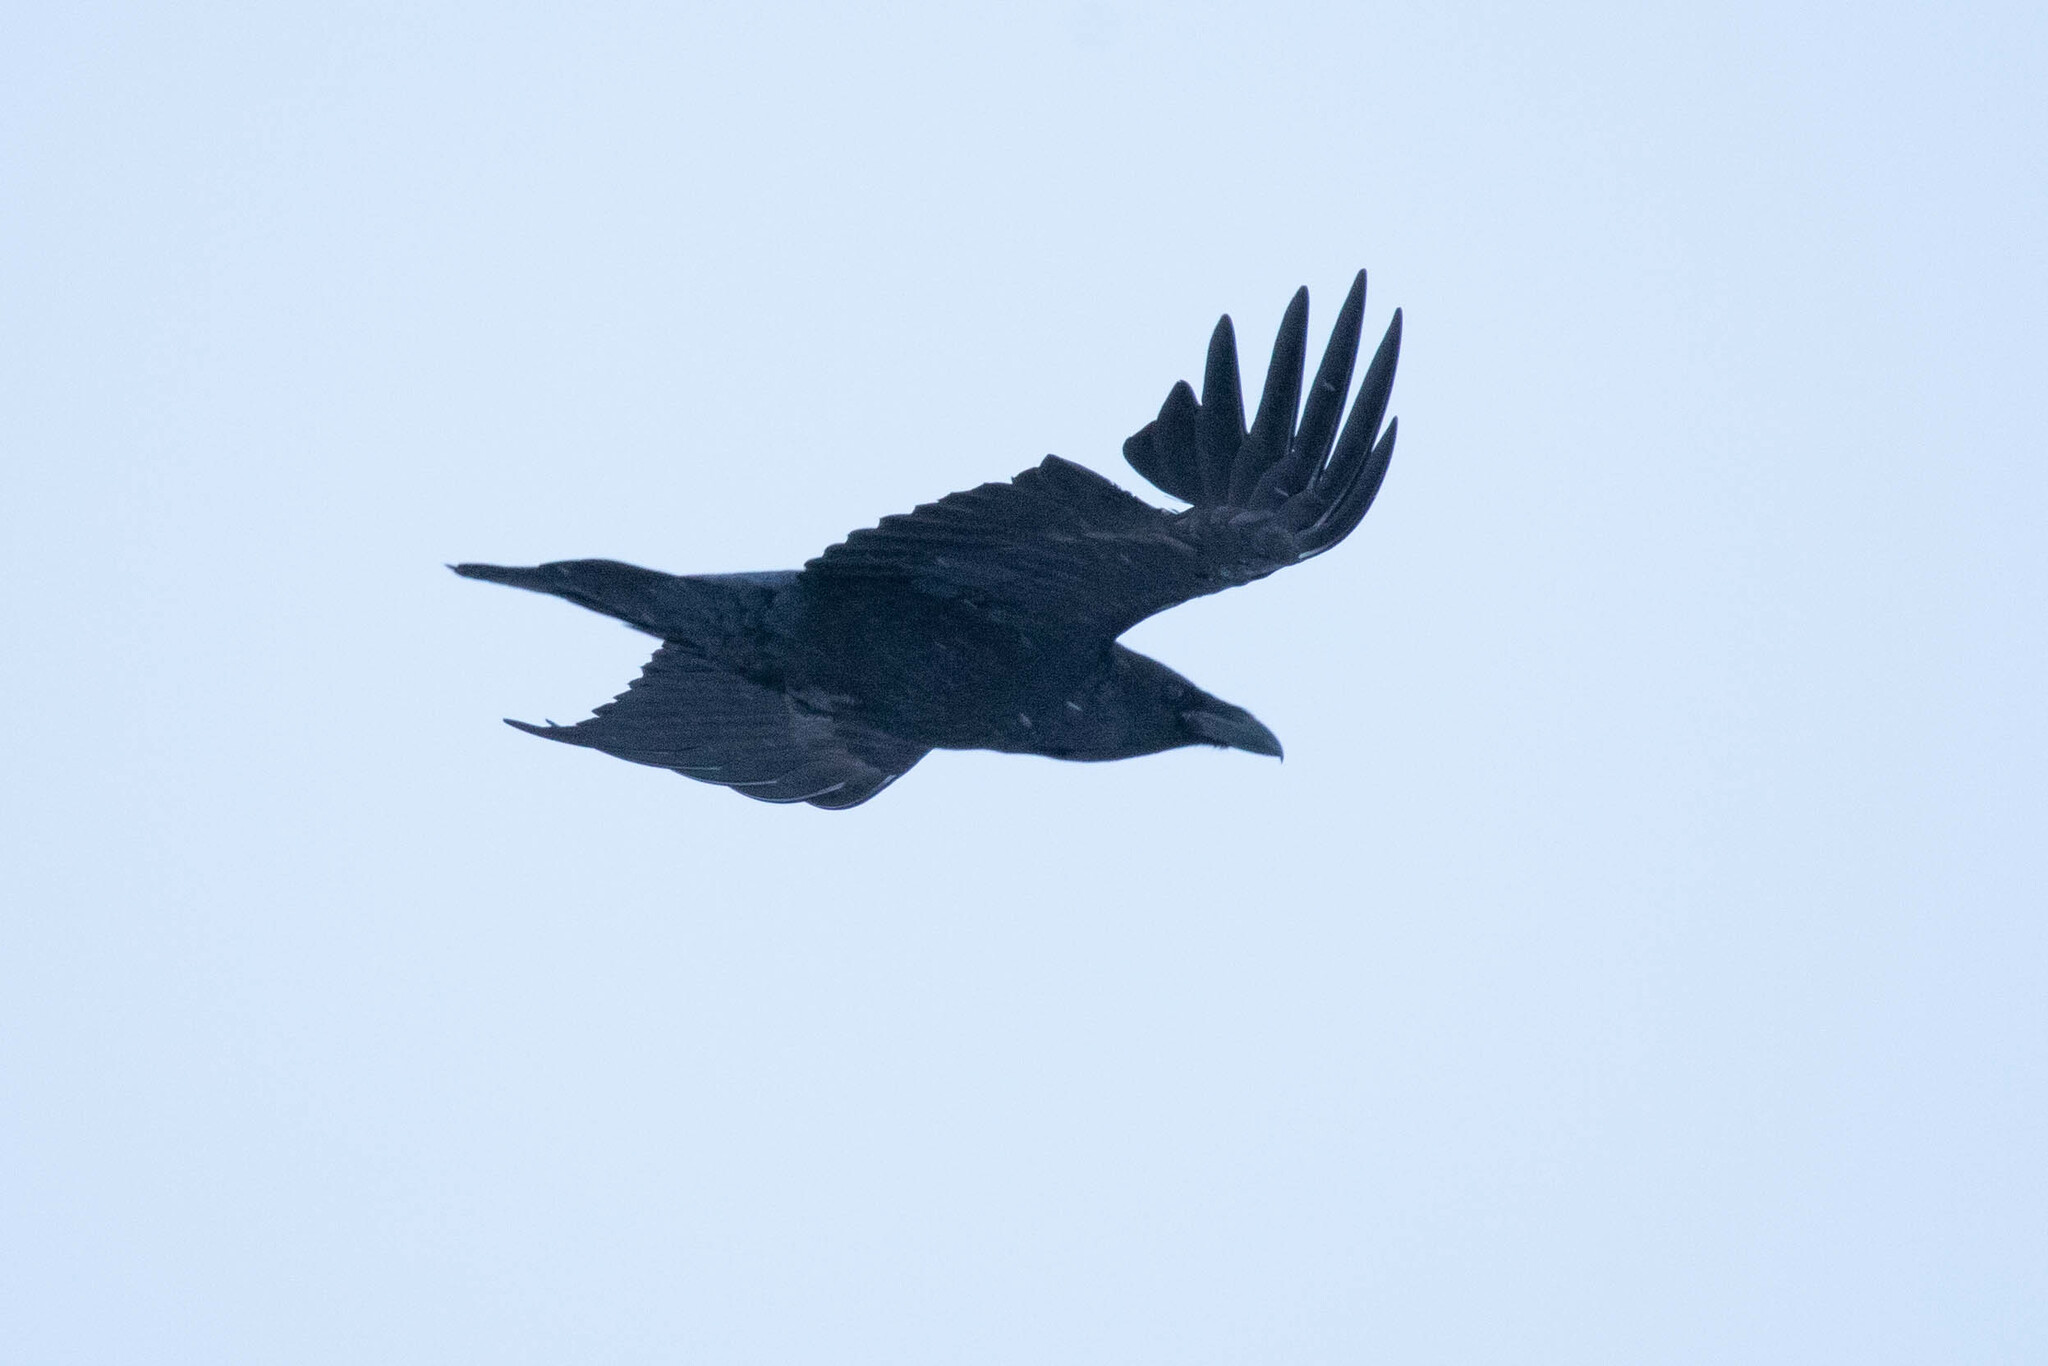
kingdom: Animalia
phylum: Chordata
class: Aves
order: Passeriformes
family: Corvidae
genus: Corvus
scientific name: Corvus corax
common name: Common raven
